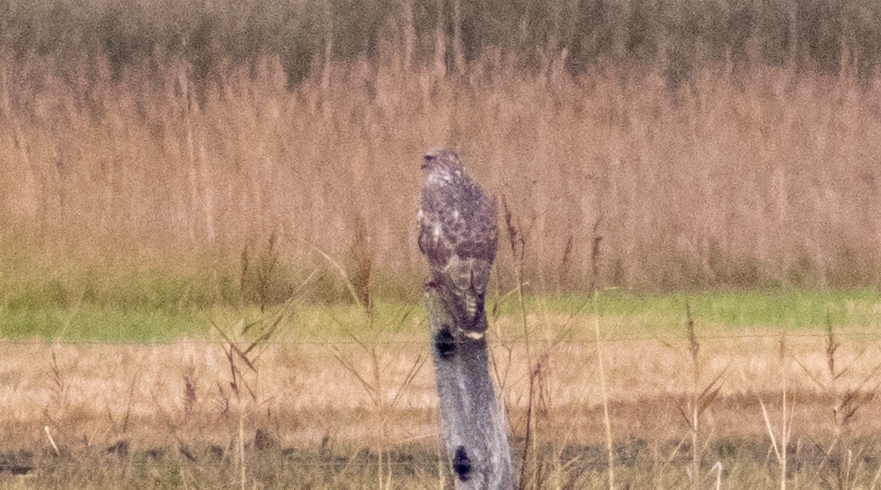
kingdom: Animalia
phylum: Chordata
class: Aves
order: Accipitriformes
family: Accipitridae
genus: Buteo
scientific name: Buteo buteo
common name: Common buzzard
